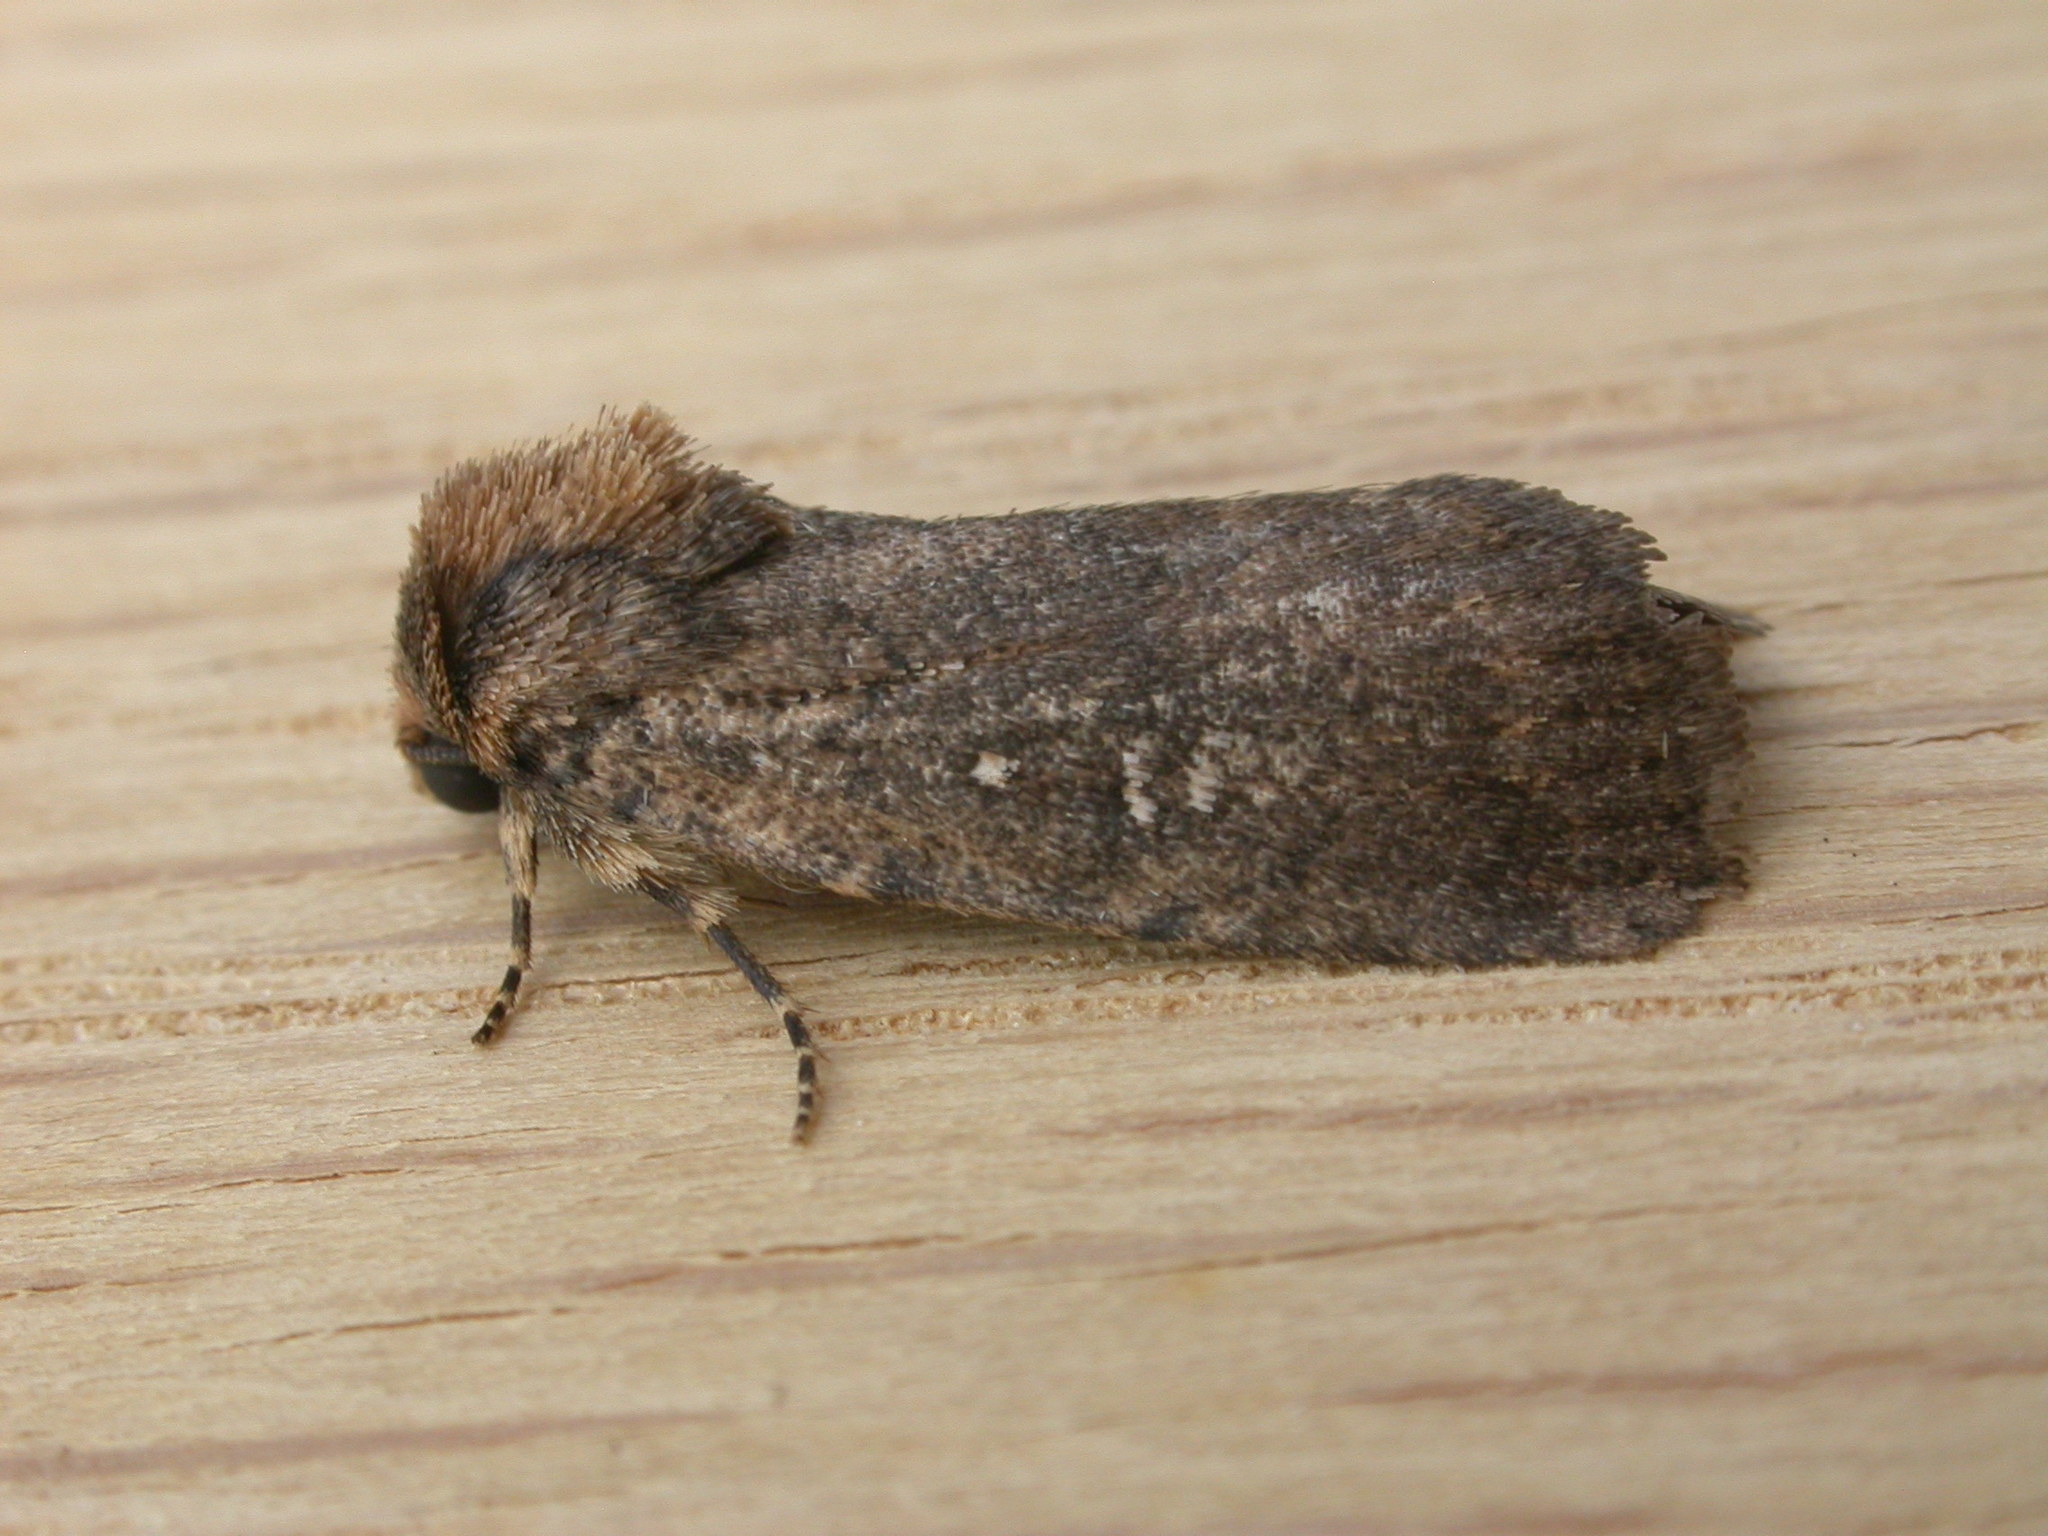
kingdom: Animalia
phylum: Arthropoda
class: Insecta
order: Lepidoptera
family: Noctuidae
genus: Proteuxoa
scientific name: Proteuxoa nyctereutica
